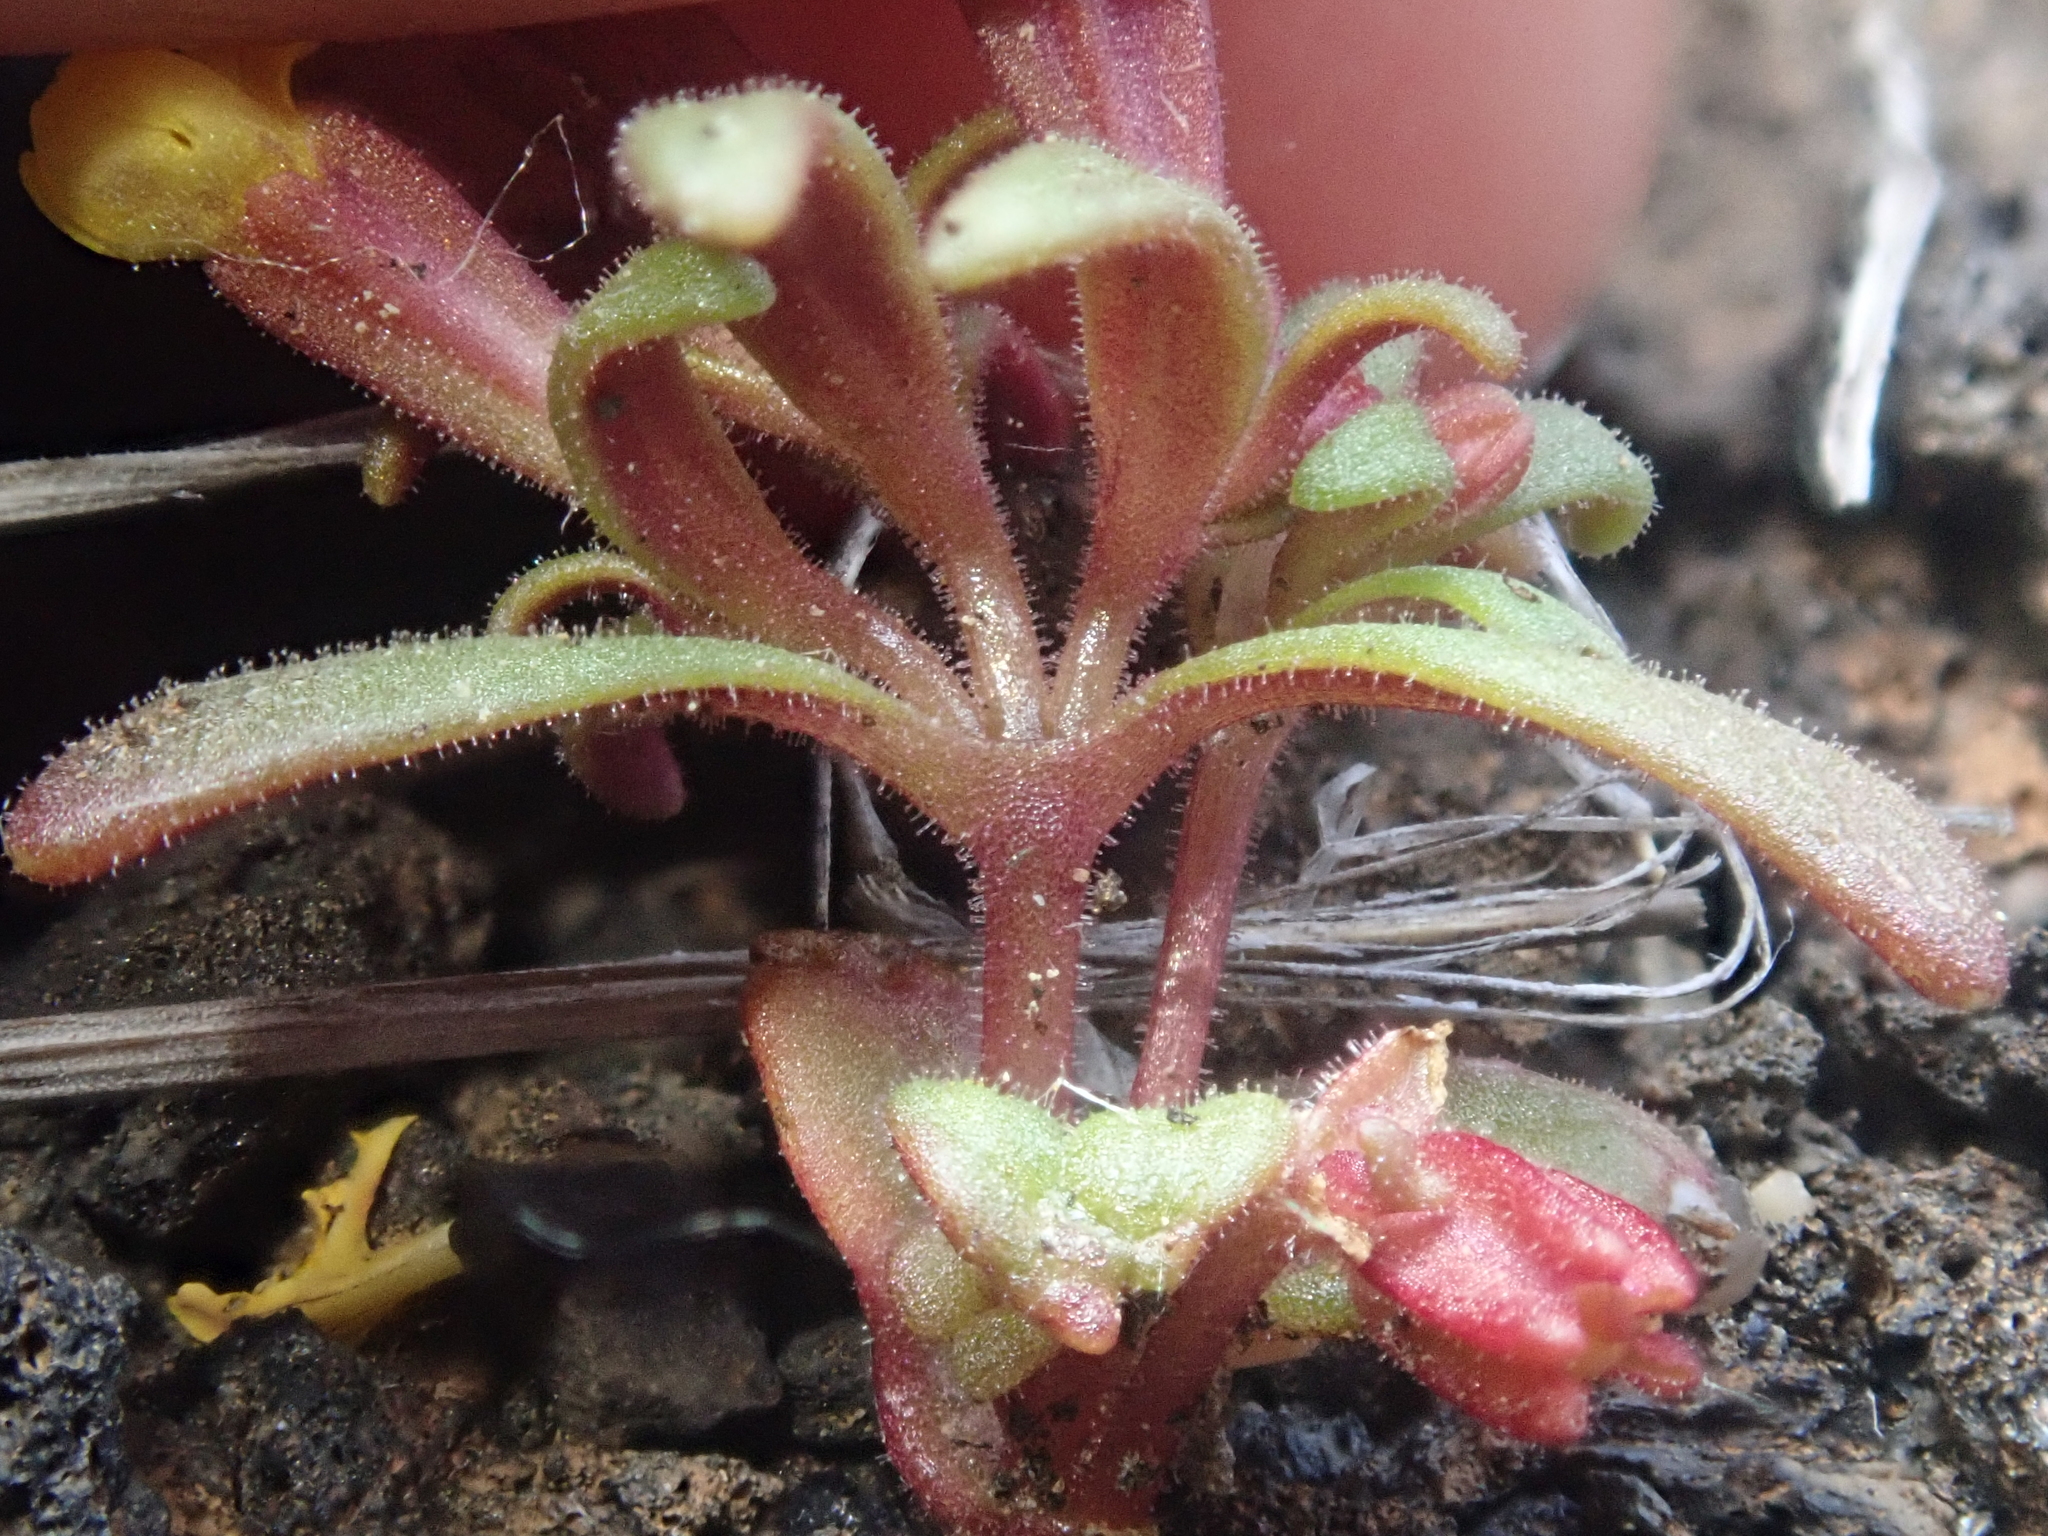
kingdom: Plantae
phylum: Tracheophyta
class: Magnoliopsida
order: Lamiales
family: Phrymaceae
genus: Erythranthe
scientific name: Erythranthe suksdorfii
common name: Suksdorf's monkeyflower
